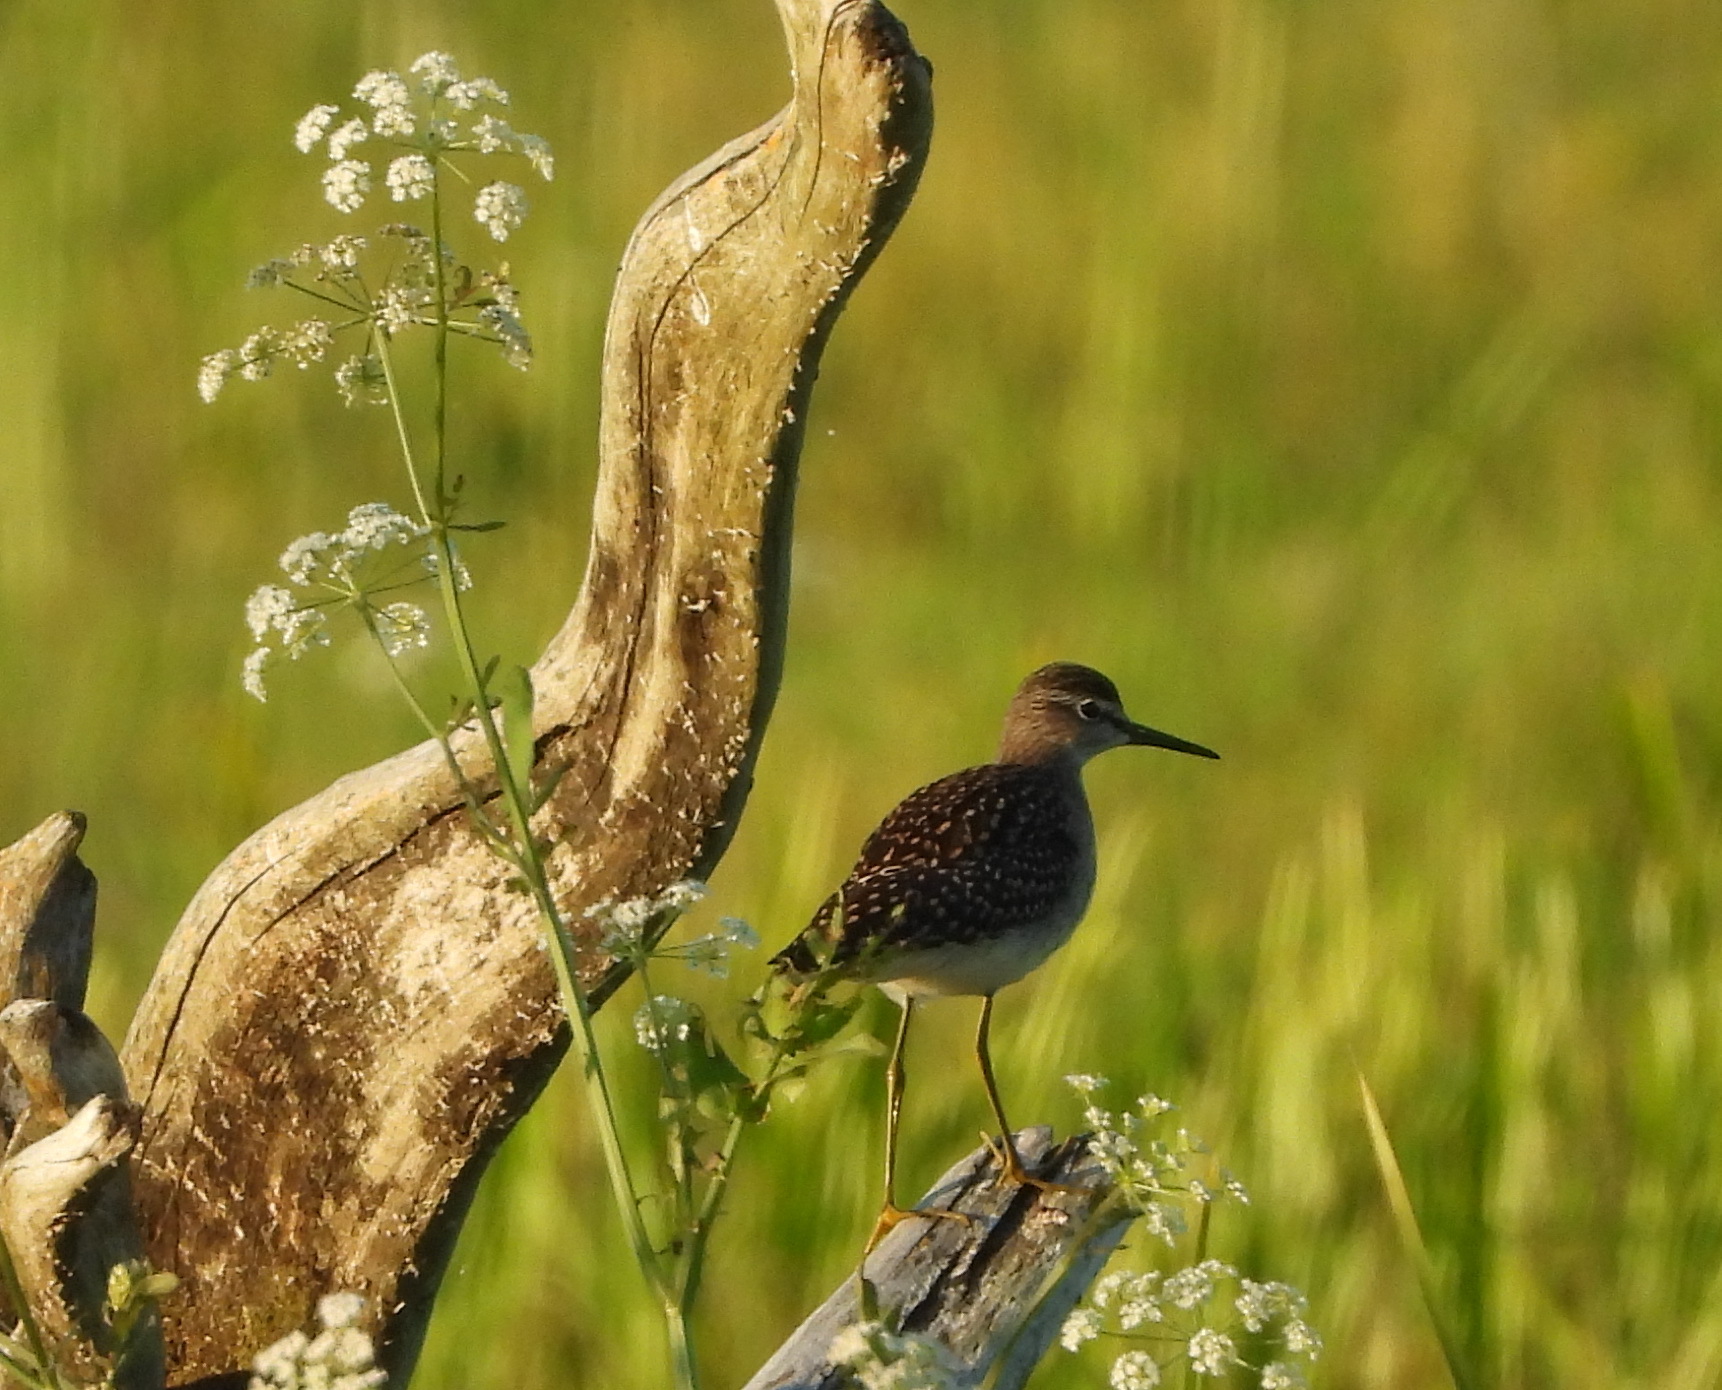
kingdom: Animalia
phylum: Chordata
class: Aves
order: Charadriiformes
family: Scolopacidae
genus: Tringa
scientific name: Tringa glareola
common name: Wood sandpiper
